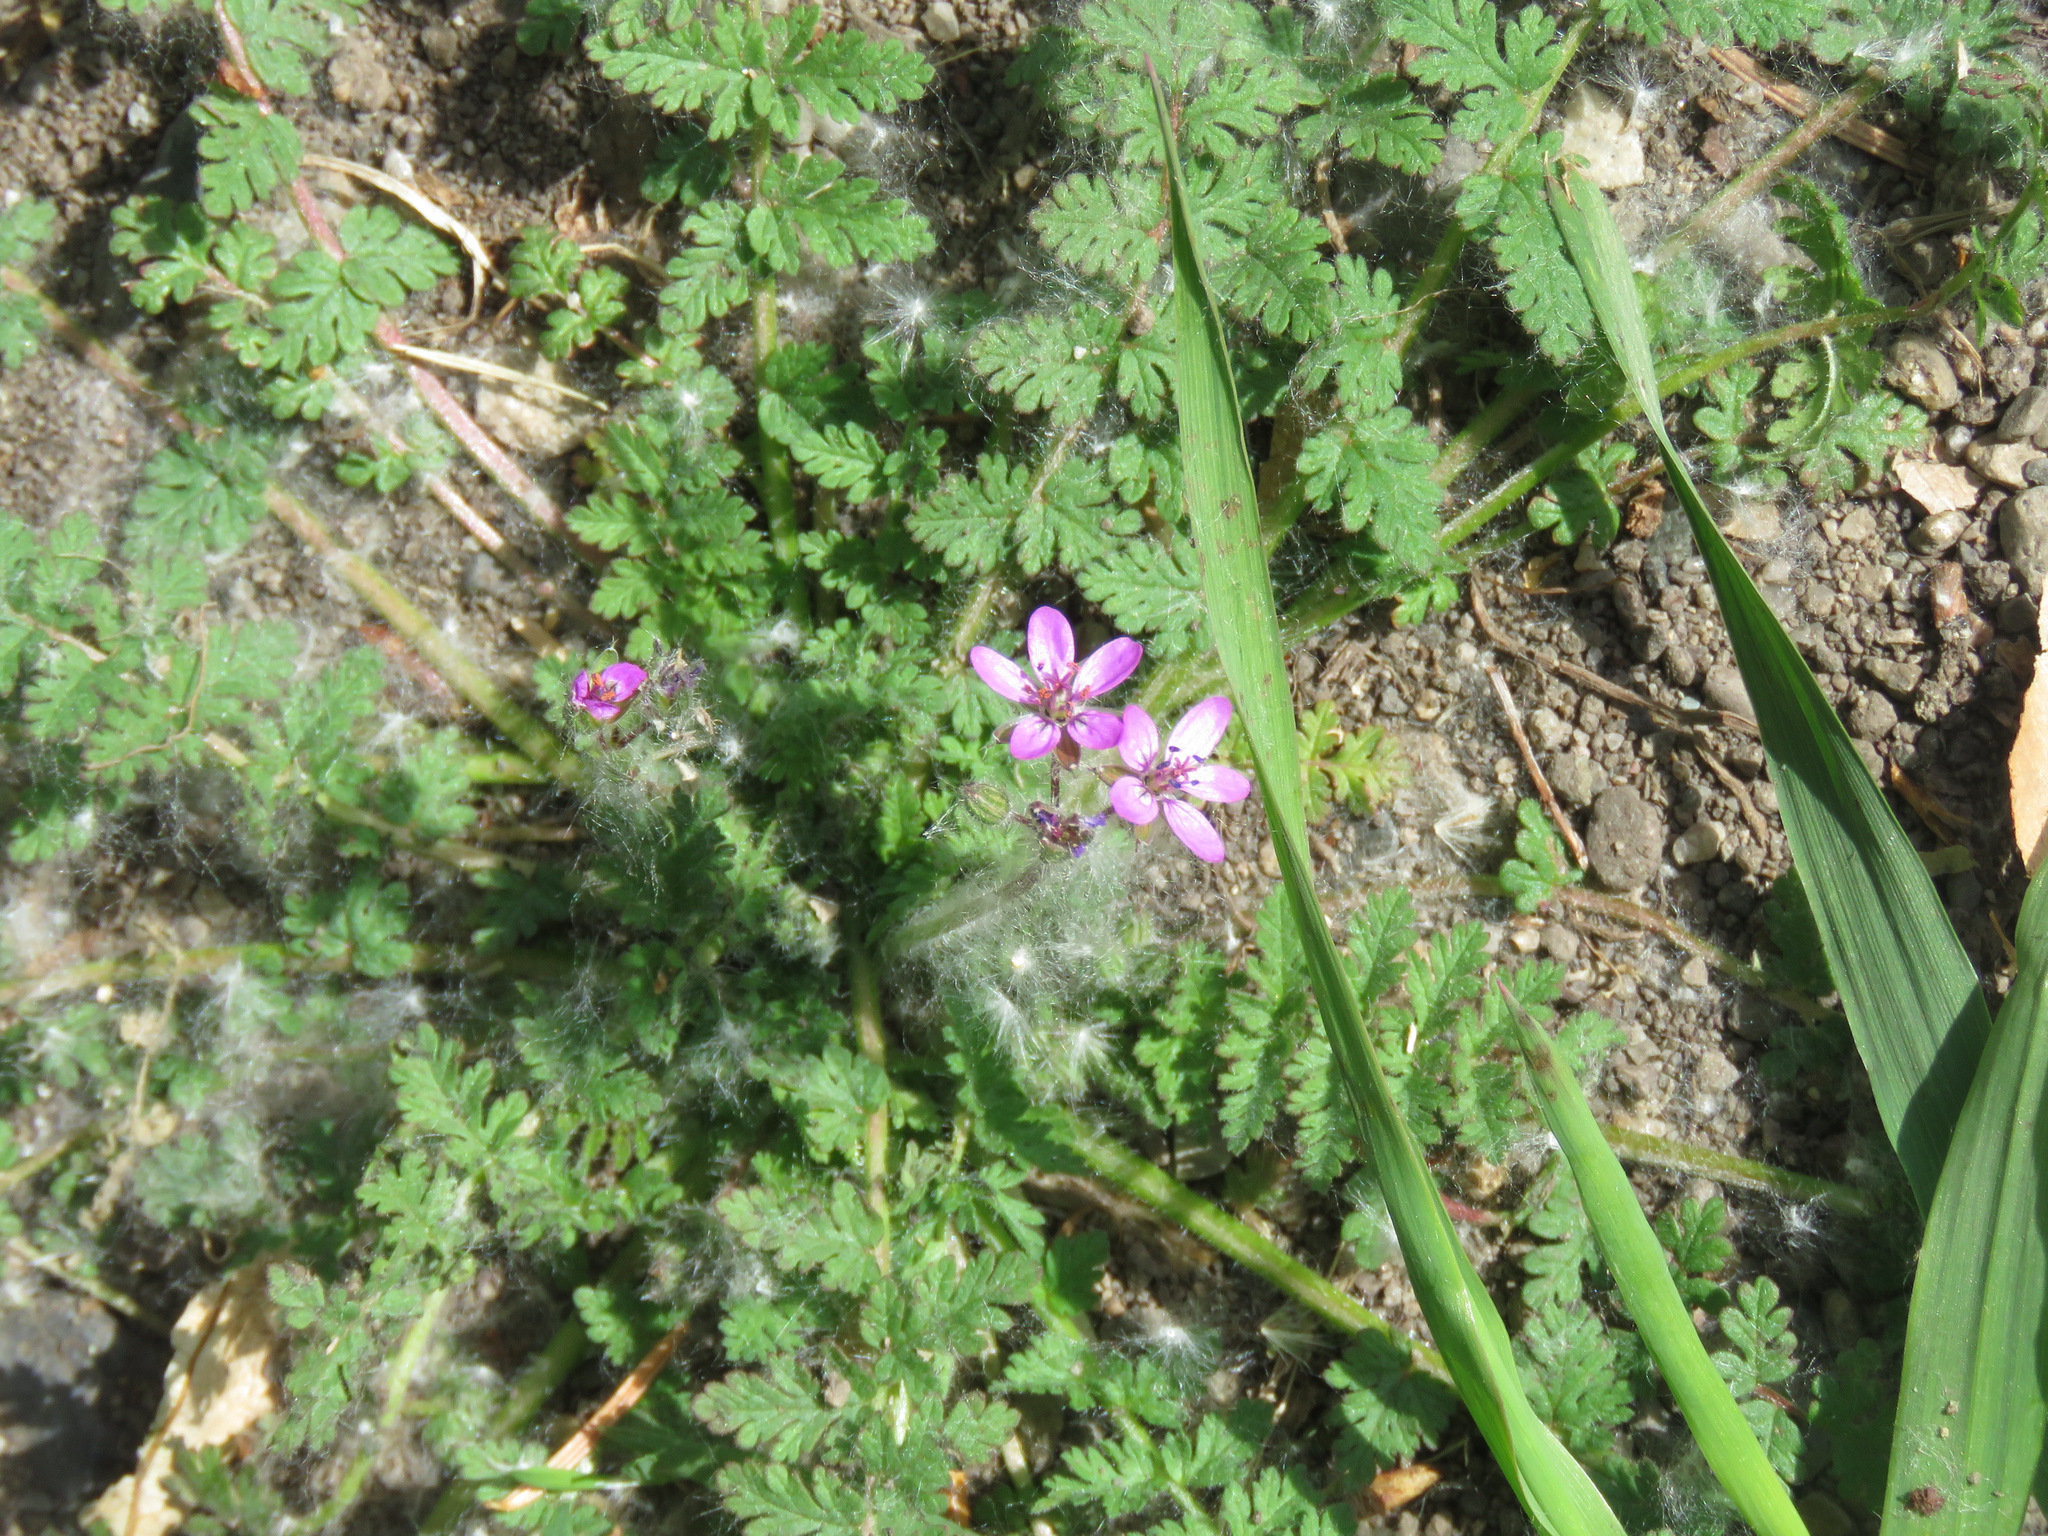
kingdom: Plantae
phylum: Tracheophyta
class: Magnoliopsida
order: Geraniales
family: Geraniaceae
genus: Erodium
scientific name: Erodium cicutarium
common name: Common stork's-bill
